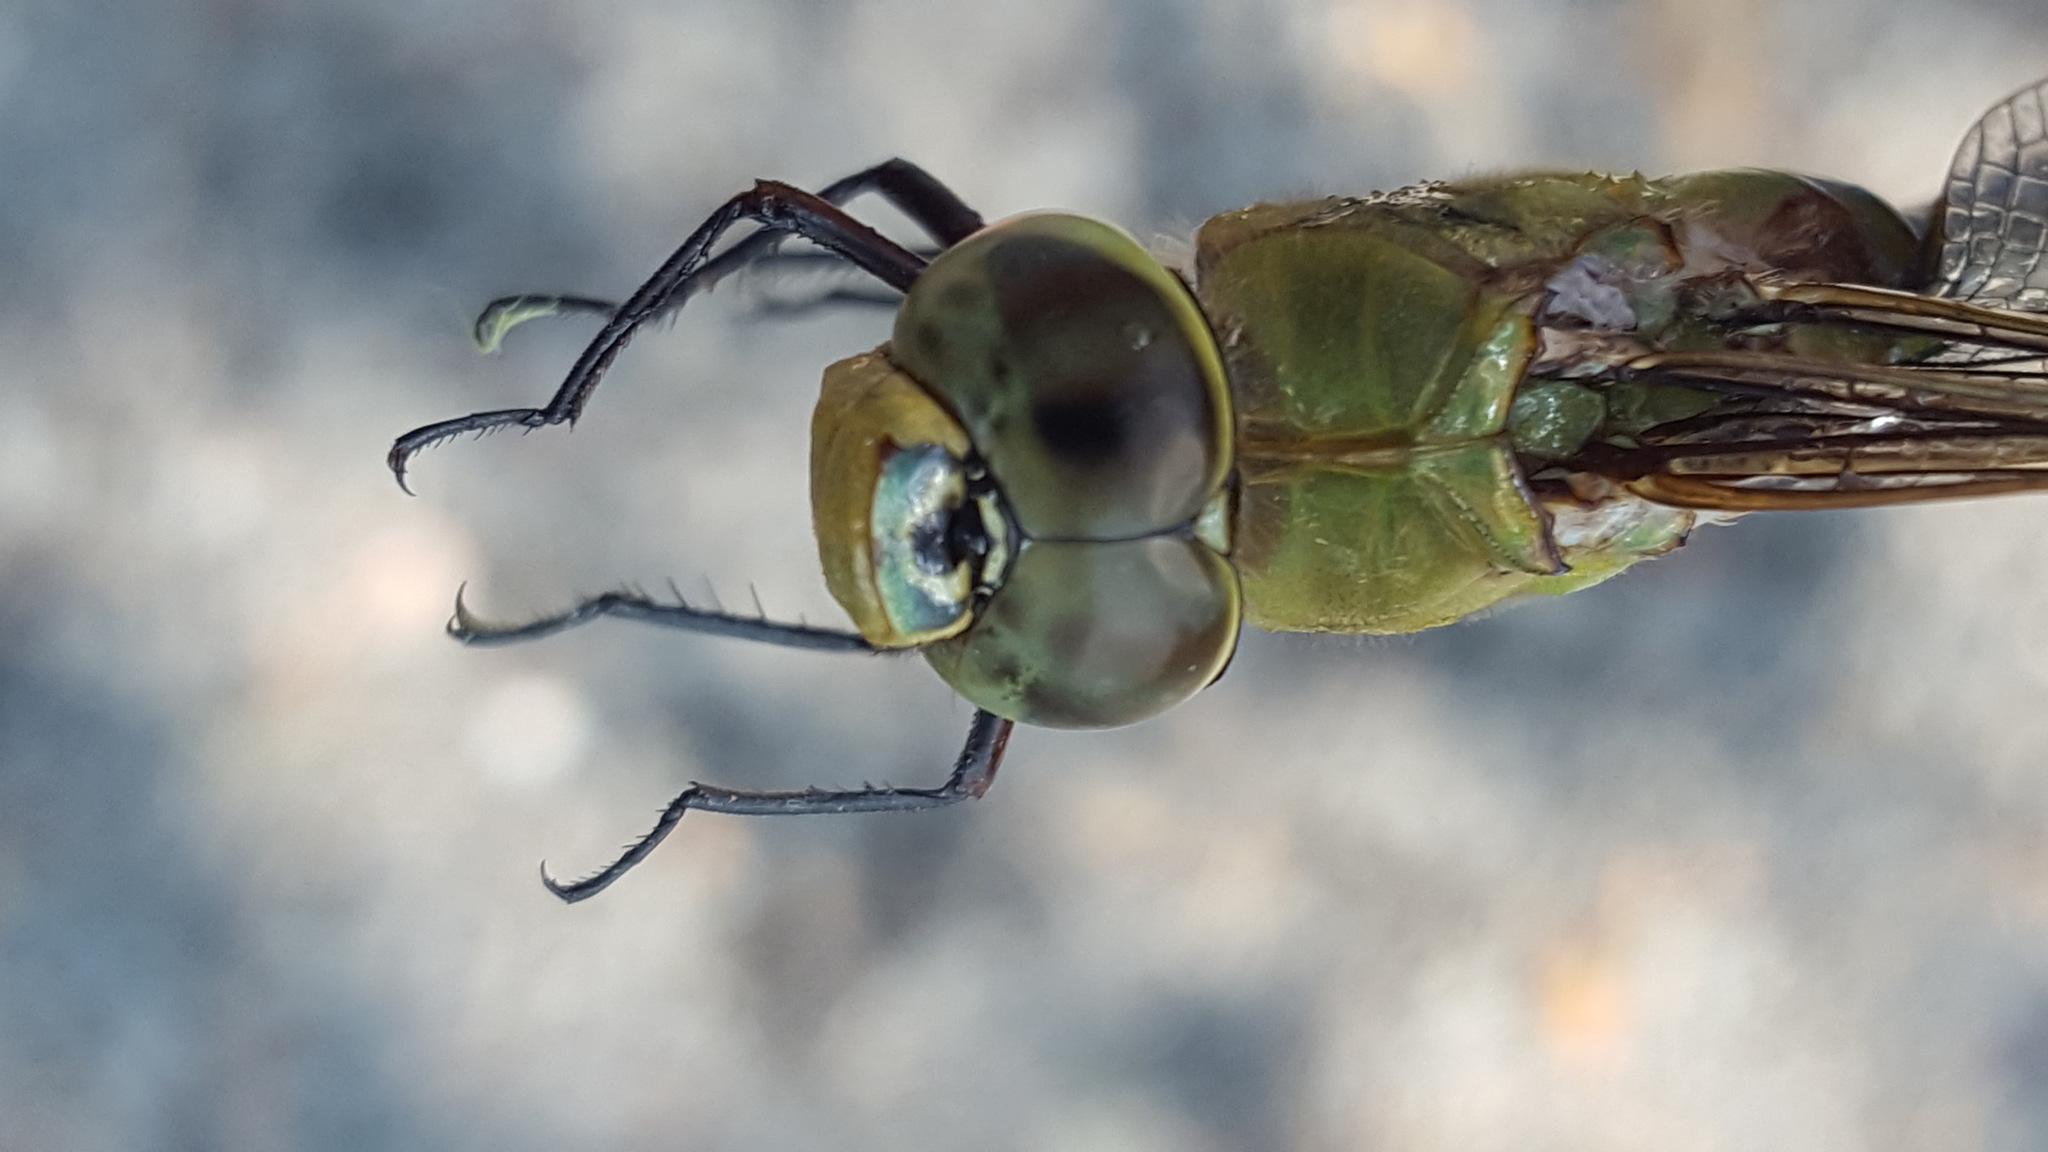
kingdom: Animalia
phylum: Arthropoda
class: Insecta
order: Odonata
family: Aeshnidae
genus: Anax
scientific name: Anax junius
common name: Common green darner
